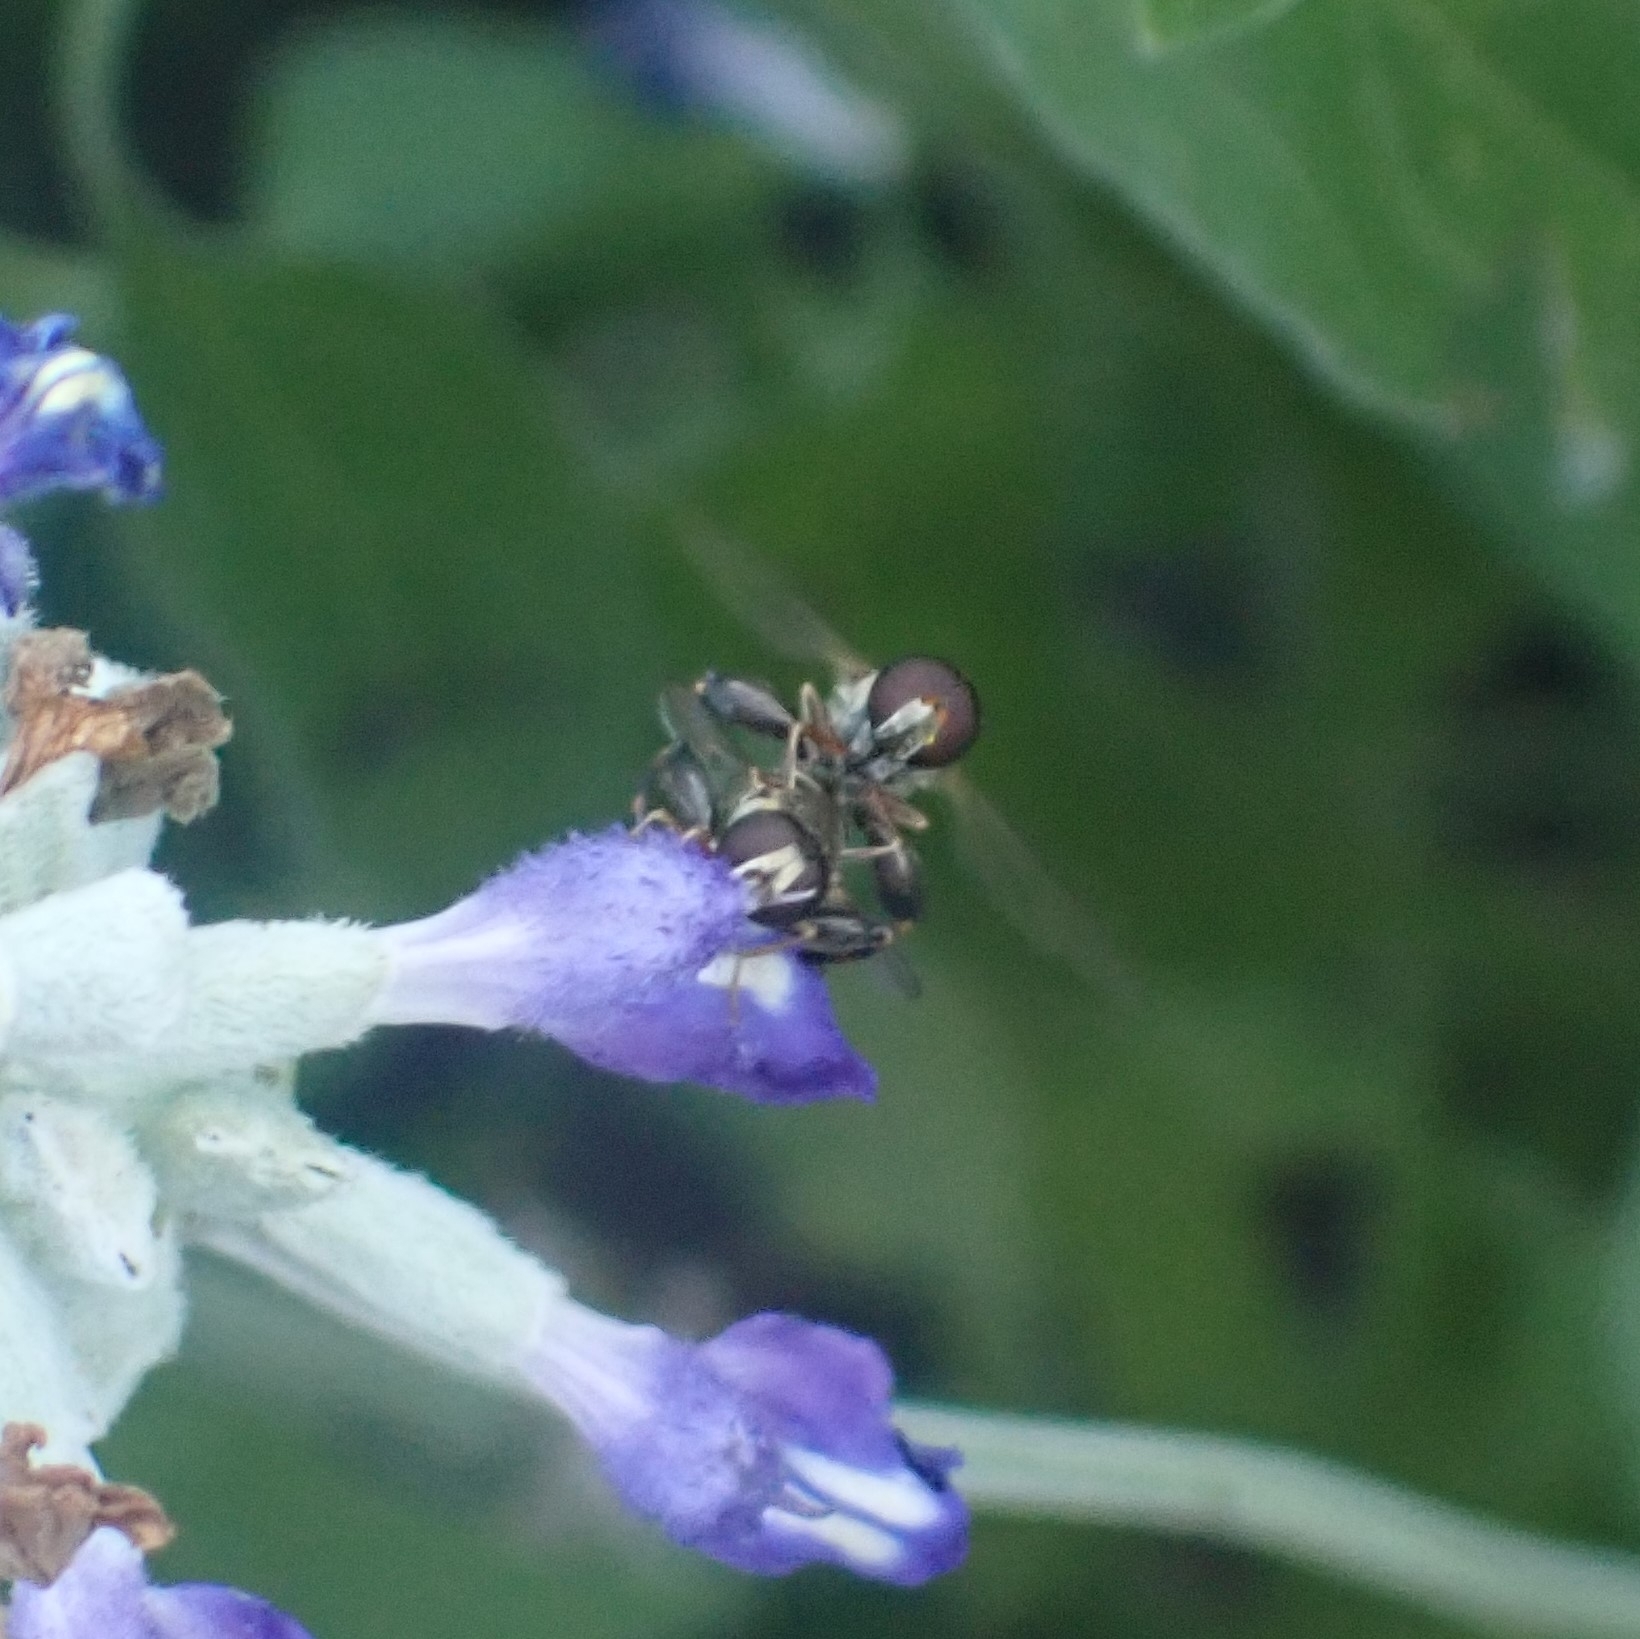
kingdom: Animalia
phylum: Arthropoda
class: Insecta
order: Diptera
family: Syrphidae
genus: Syritta
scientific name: Syritta pipiens
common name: Hover fly
